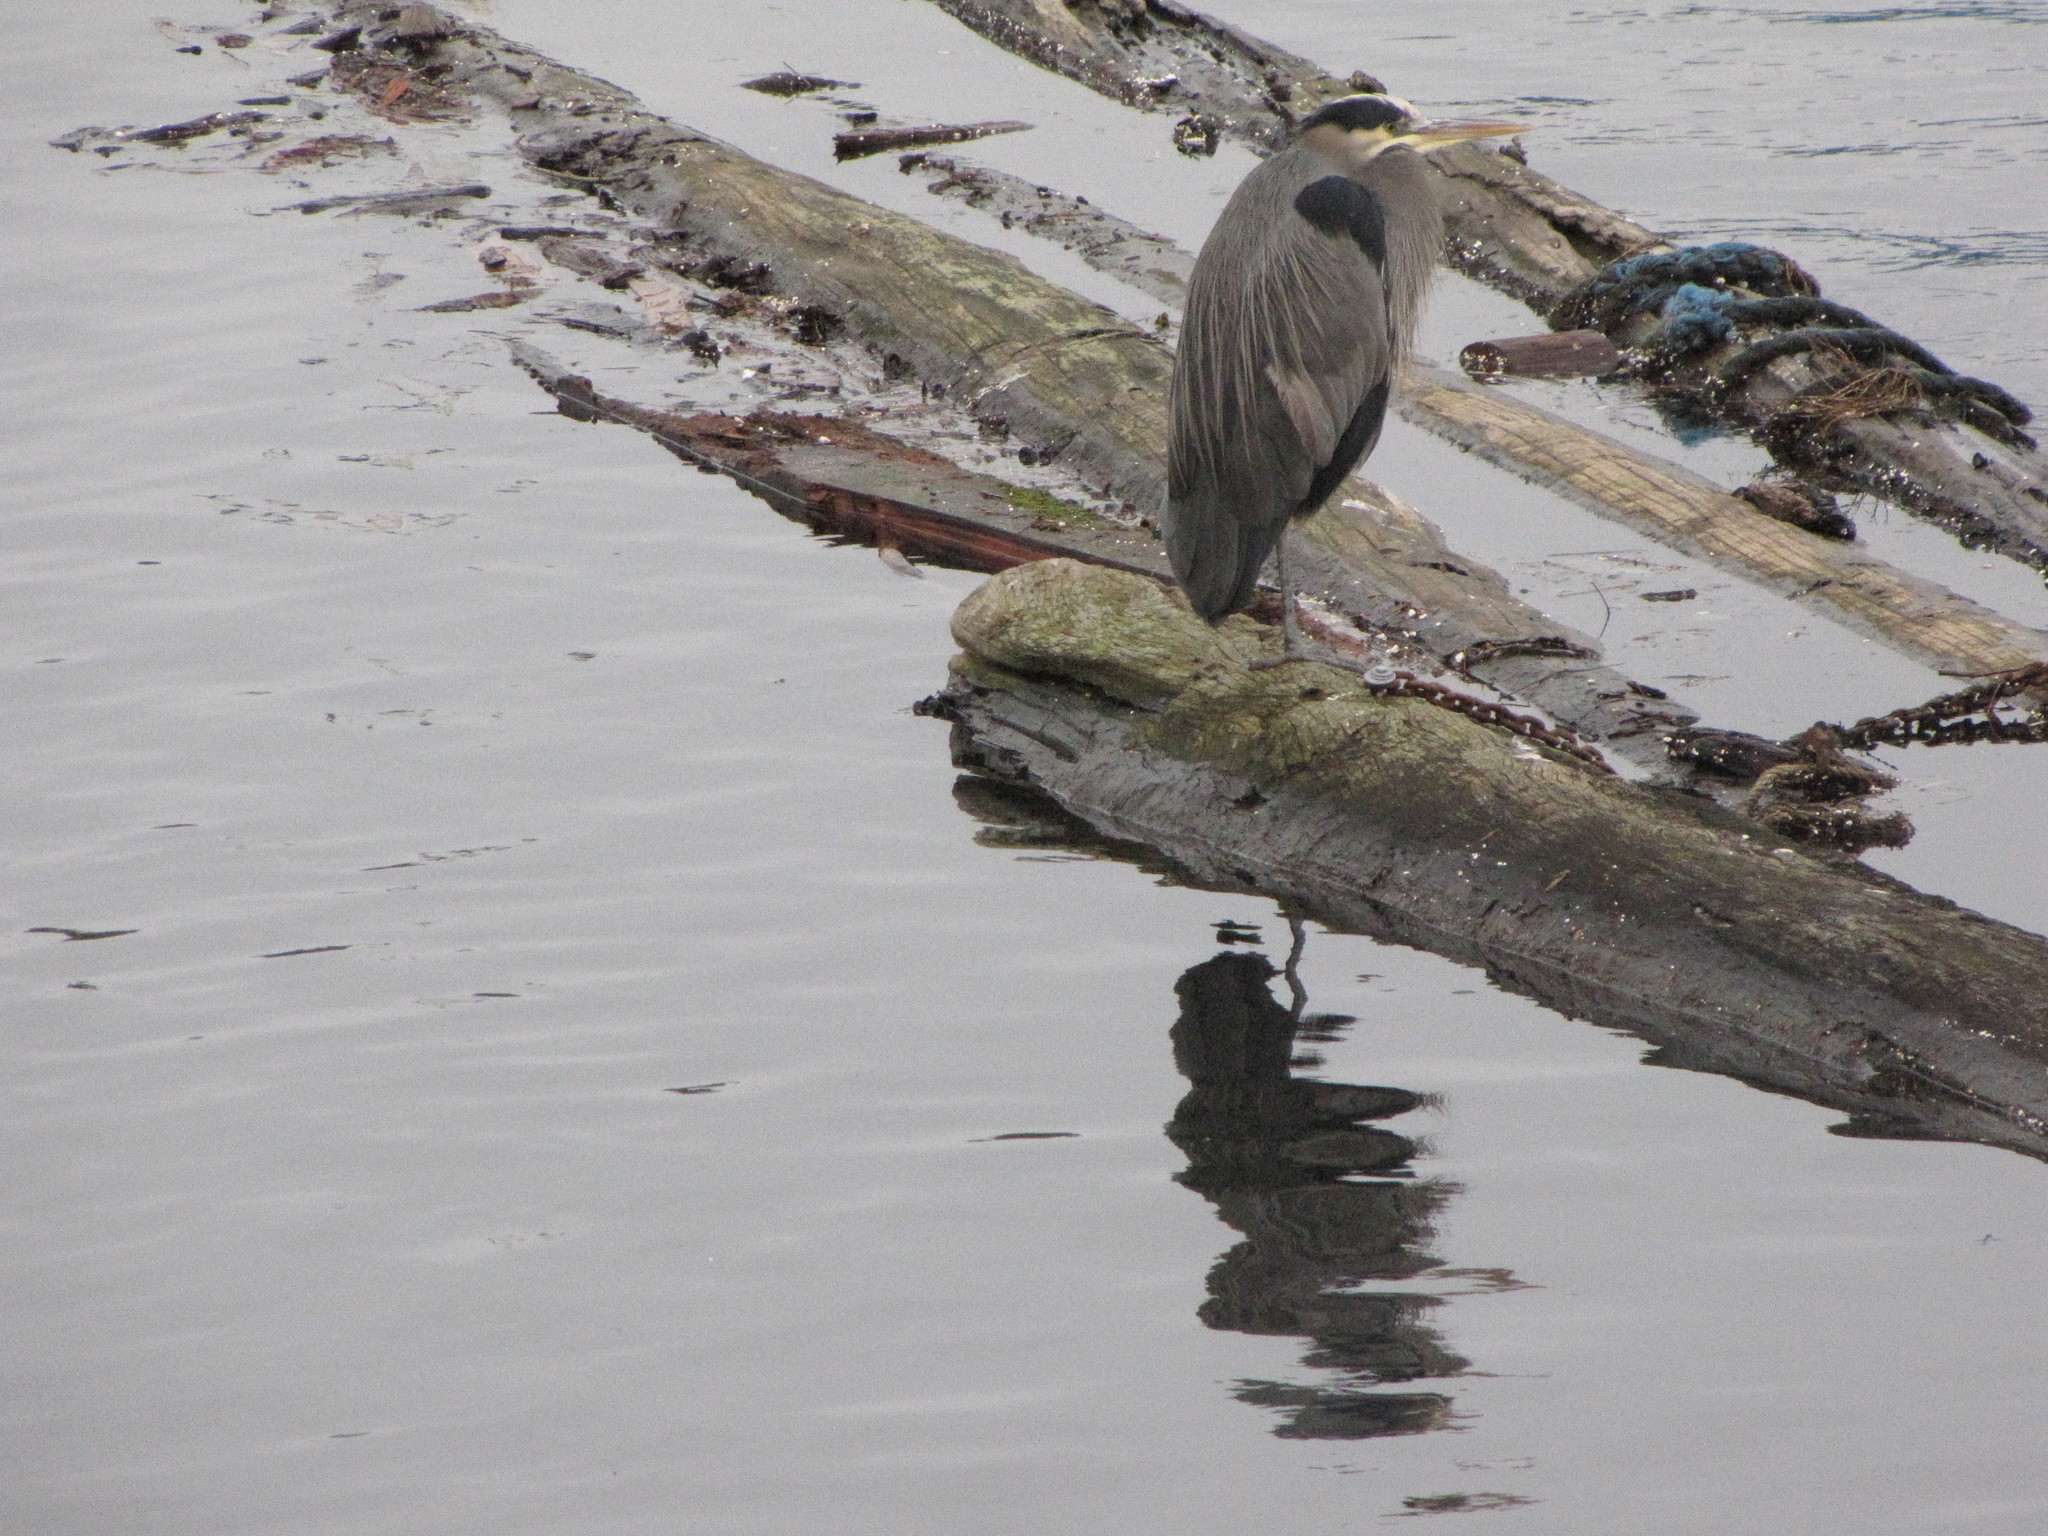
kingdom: Animalia
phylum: Chordata
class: Aves
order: Pelecaniformes
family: Ardeidae
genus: Ardea
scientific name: Ardea herodias
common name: Great blue heron
